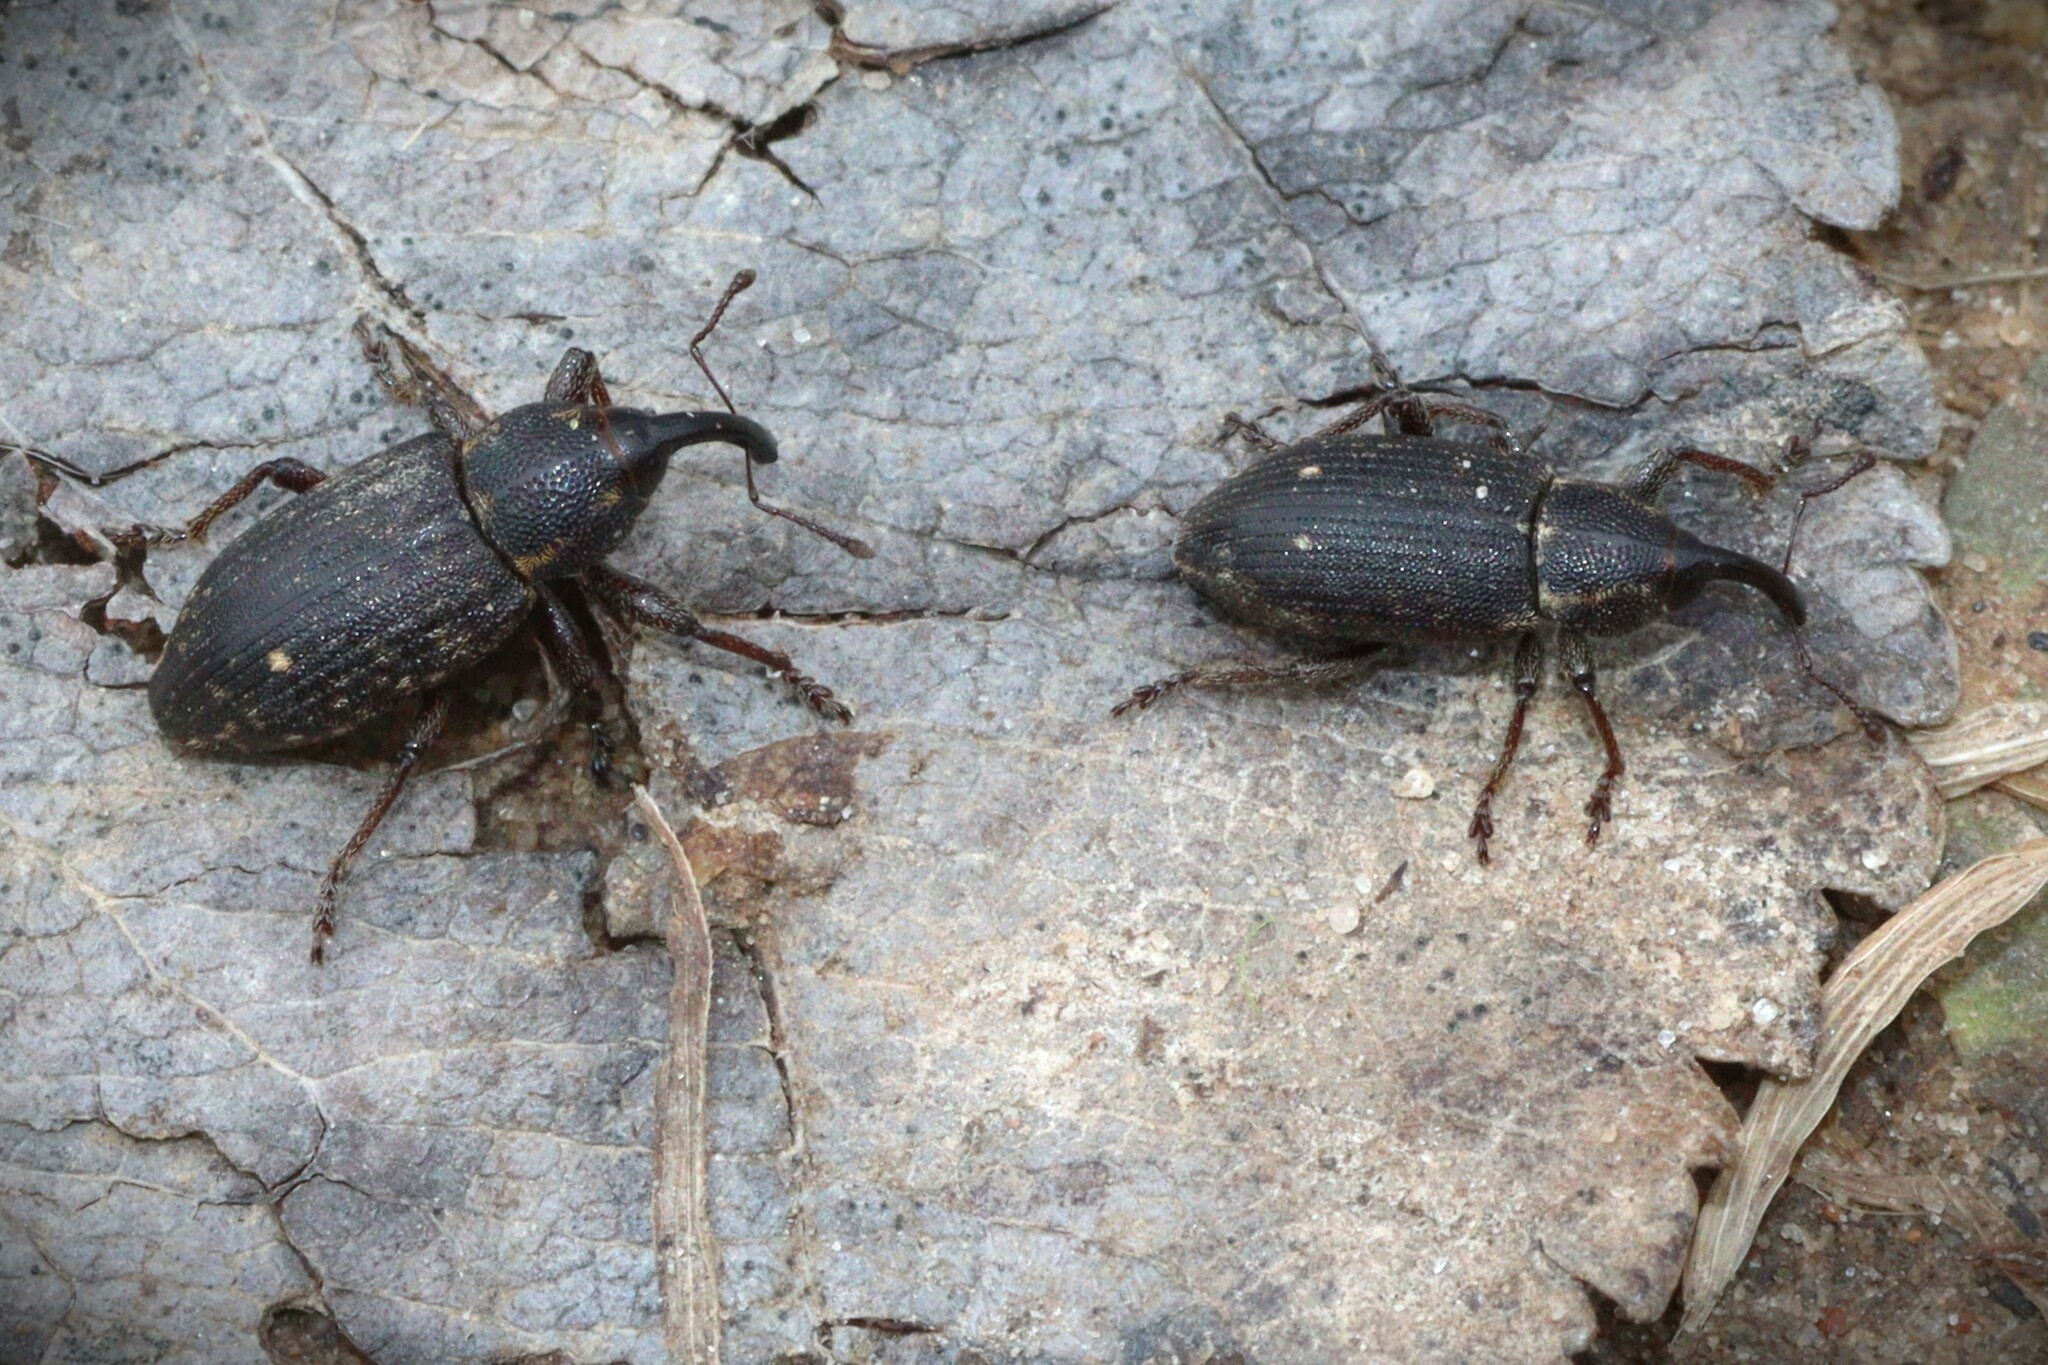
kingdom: Animalia
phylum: Arthropoda
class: Insecta
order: Coleoptera
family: Brachyceridae
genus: Tournotaris
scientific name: Tournotaris bimaculata
